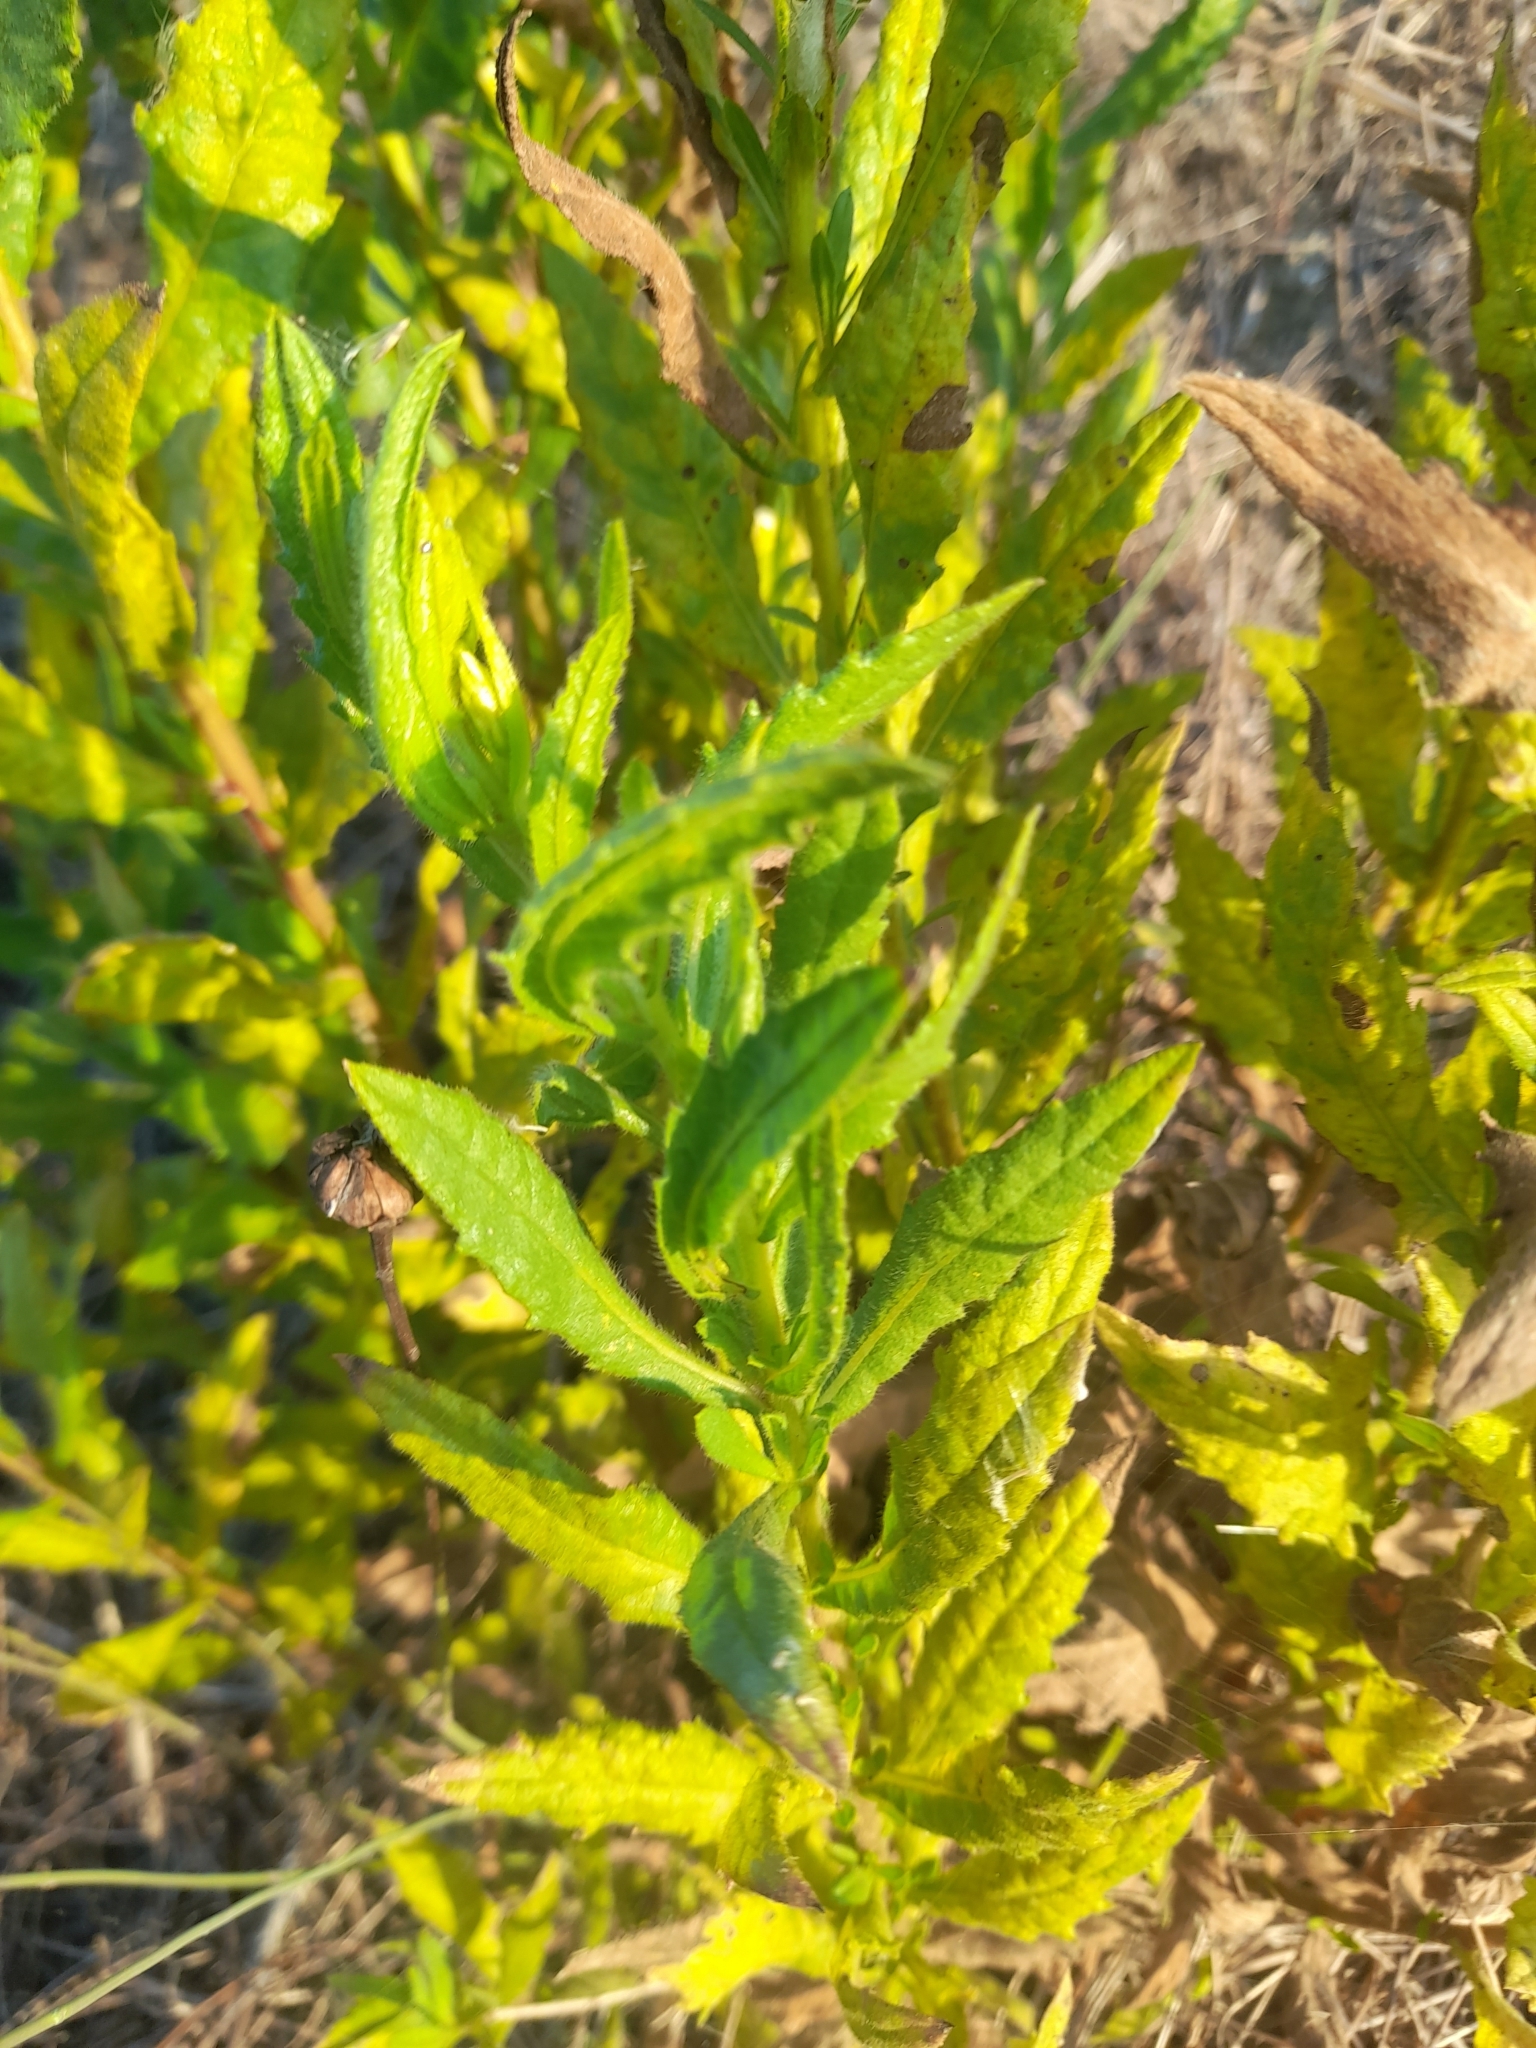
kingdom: Plantae
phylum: Tracheophyta
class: Magnoliopsida
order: Asterales
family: Asteraceae
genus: Dittrichia
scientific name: Dittrichia viscosa
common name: Woody fleabane
